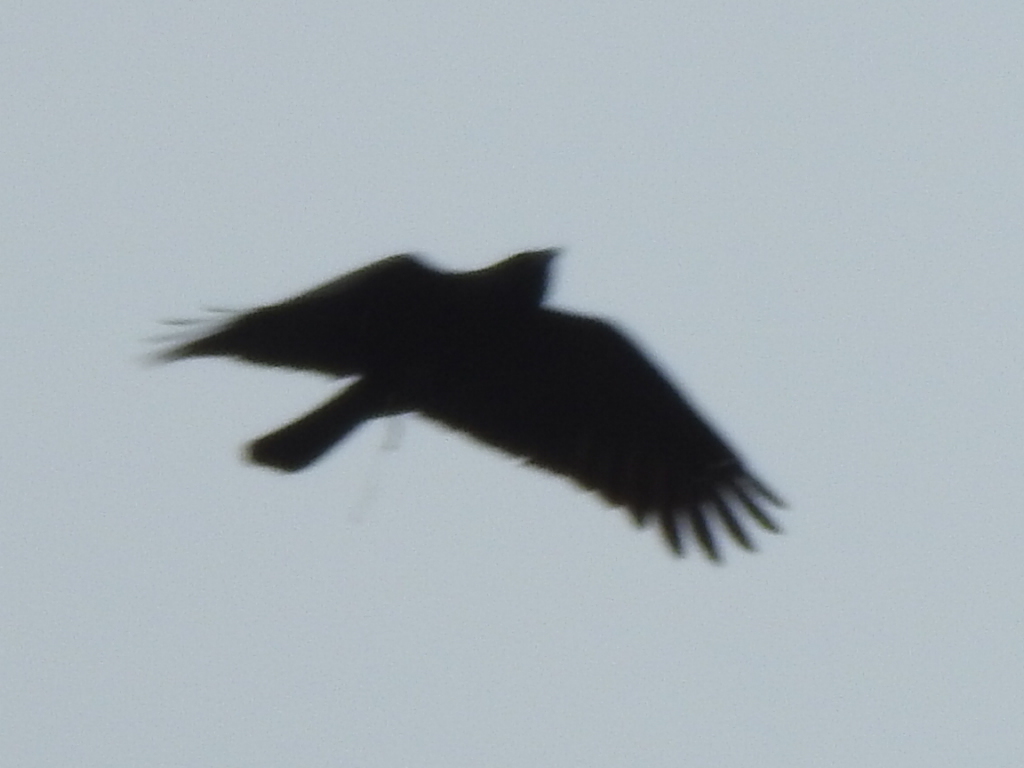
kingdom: Animalia
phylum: Chordata
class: Aves
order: Passeriformes
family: Corvidae
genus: Corvus
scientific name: Corvus brachyrhynchos
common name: American crow
